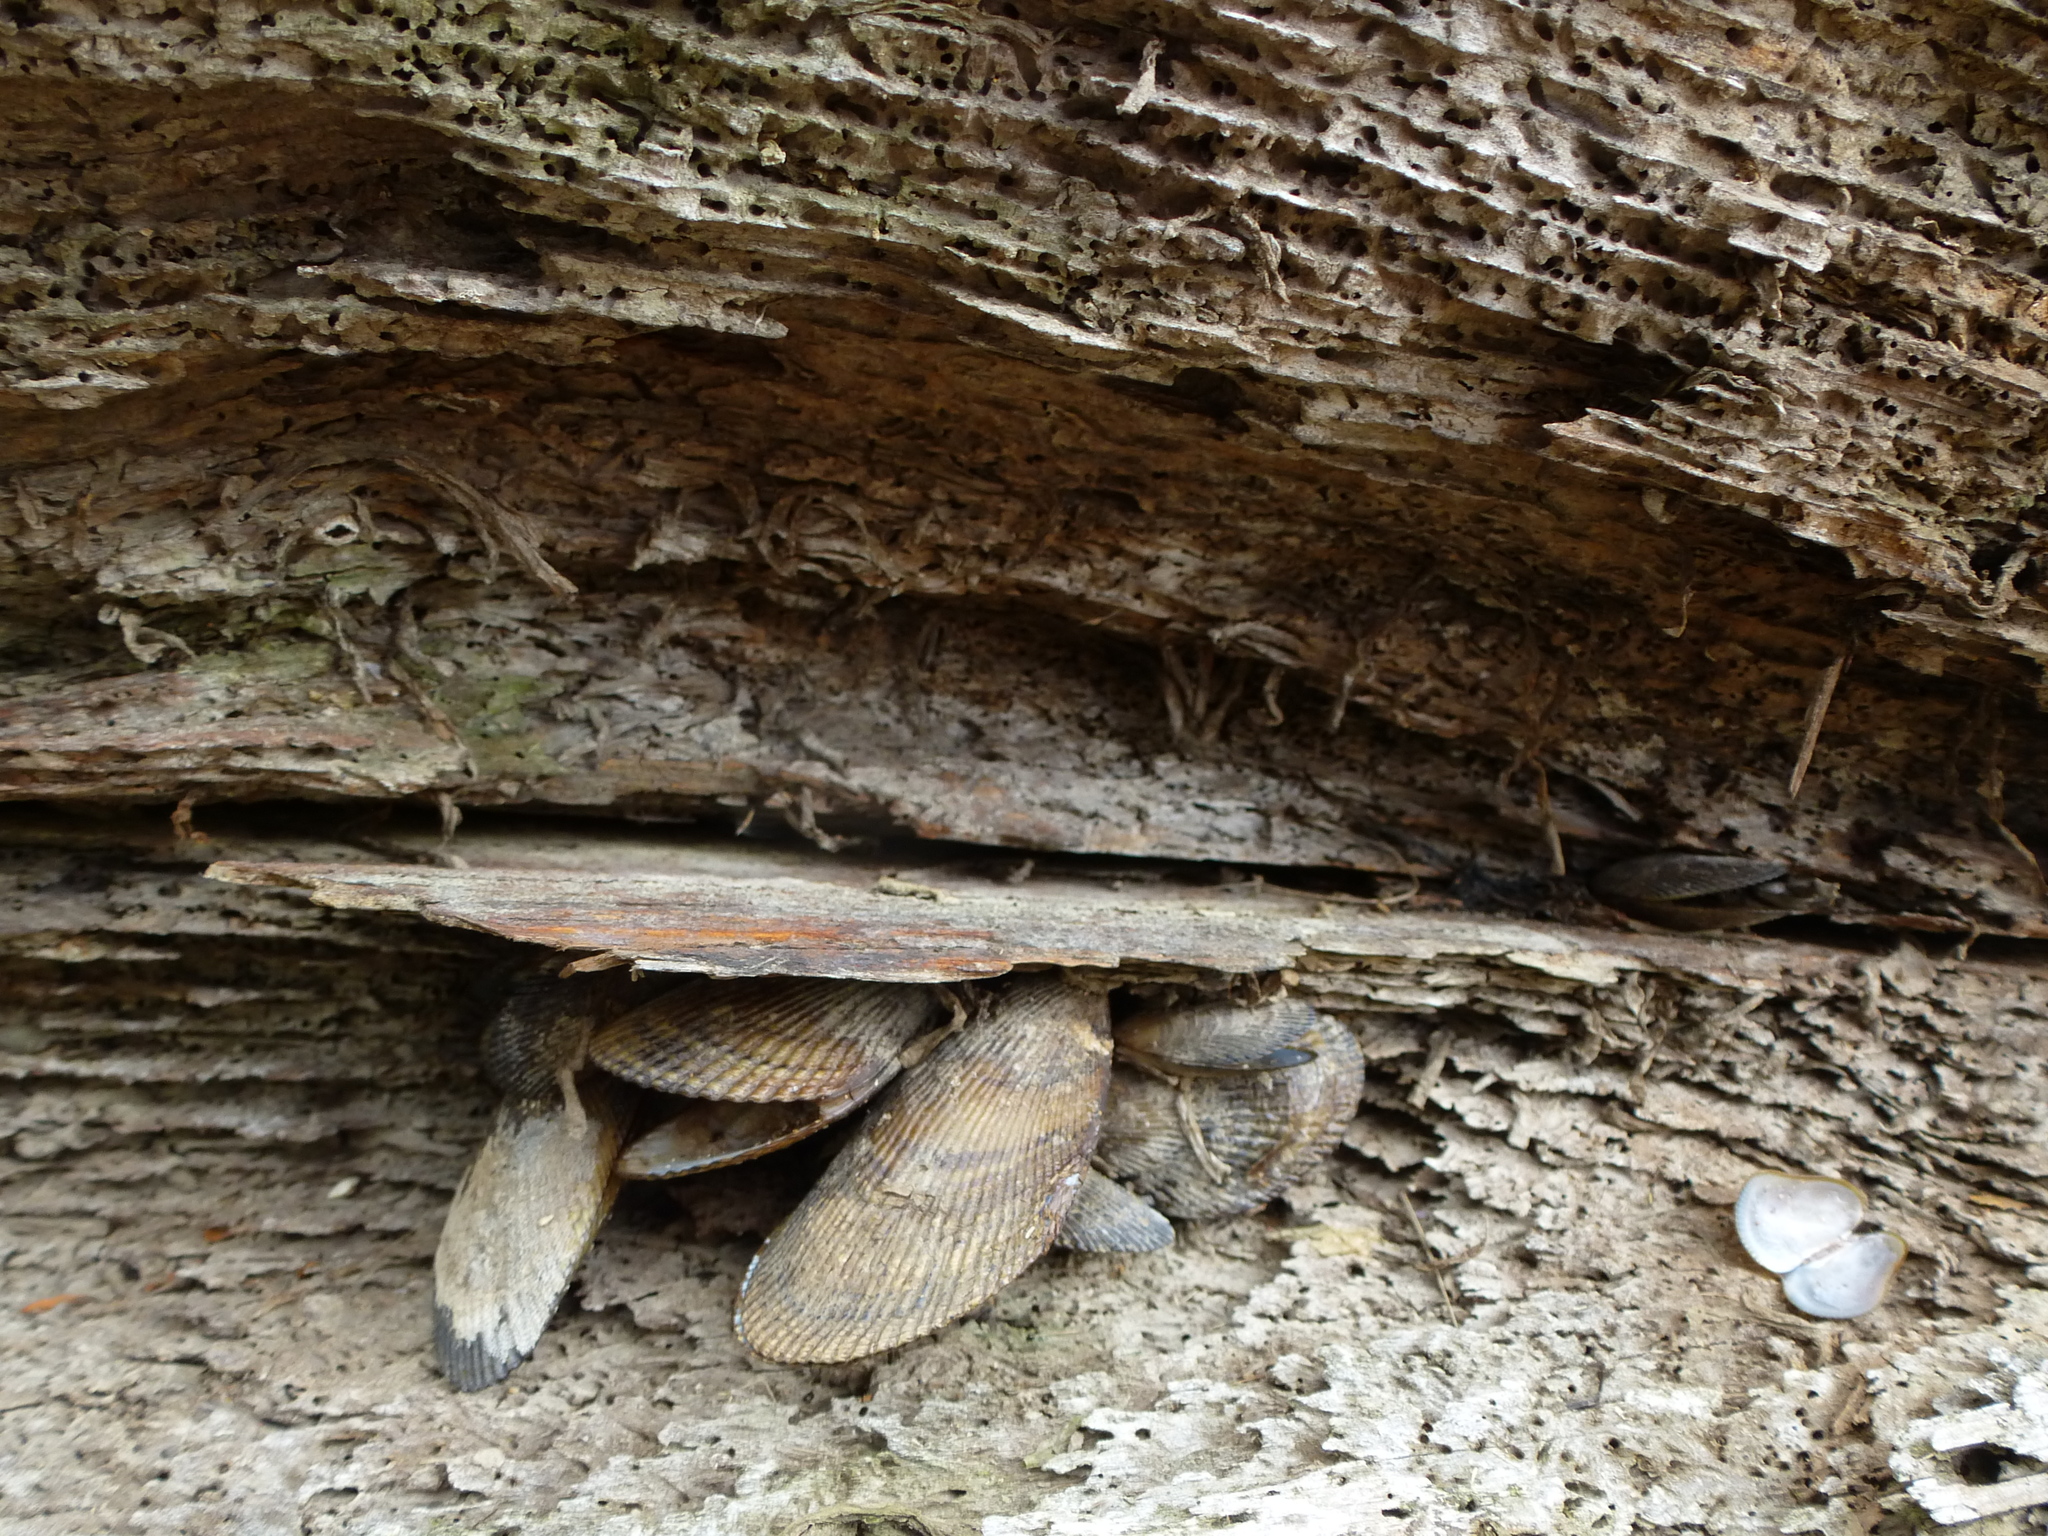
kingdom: Animalia
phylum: Mollusca
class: Bivalvia
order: Mytilida
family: Mytilidae
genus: Geukensia
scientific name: Geukensia demissa
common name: Ribbed mussel
